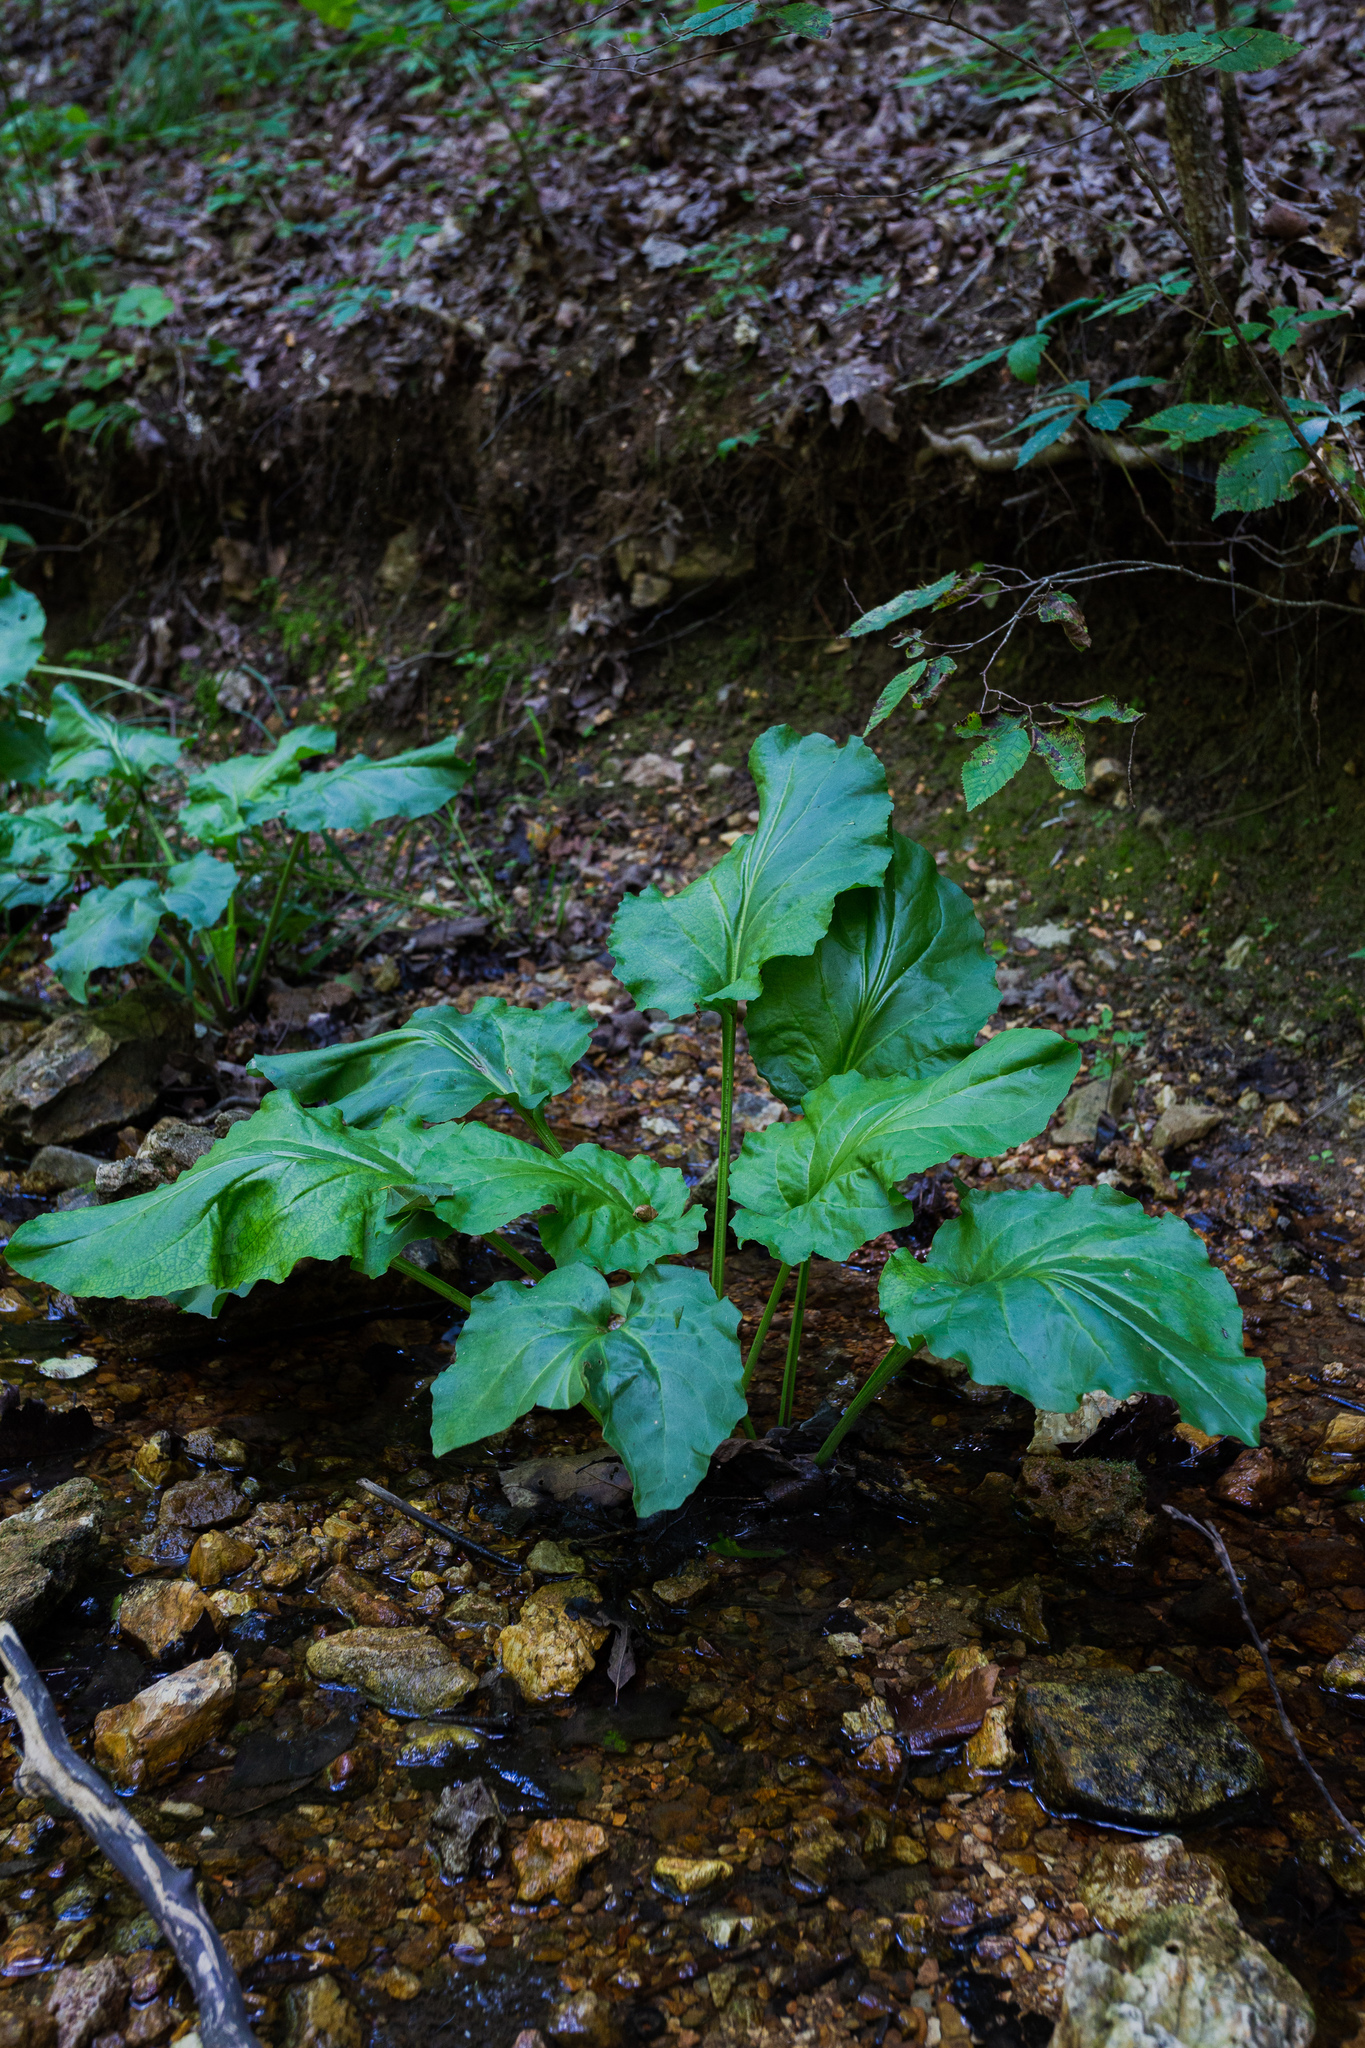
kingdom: Plantae
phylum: Tracheophyta
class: Magnoliopsida
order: Lamiales
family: Plantaginaceae
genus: Plantago
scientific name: Plantago cordata
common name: Kingroot
